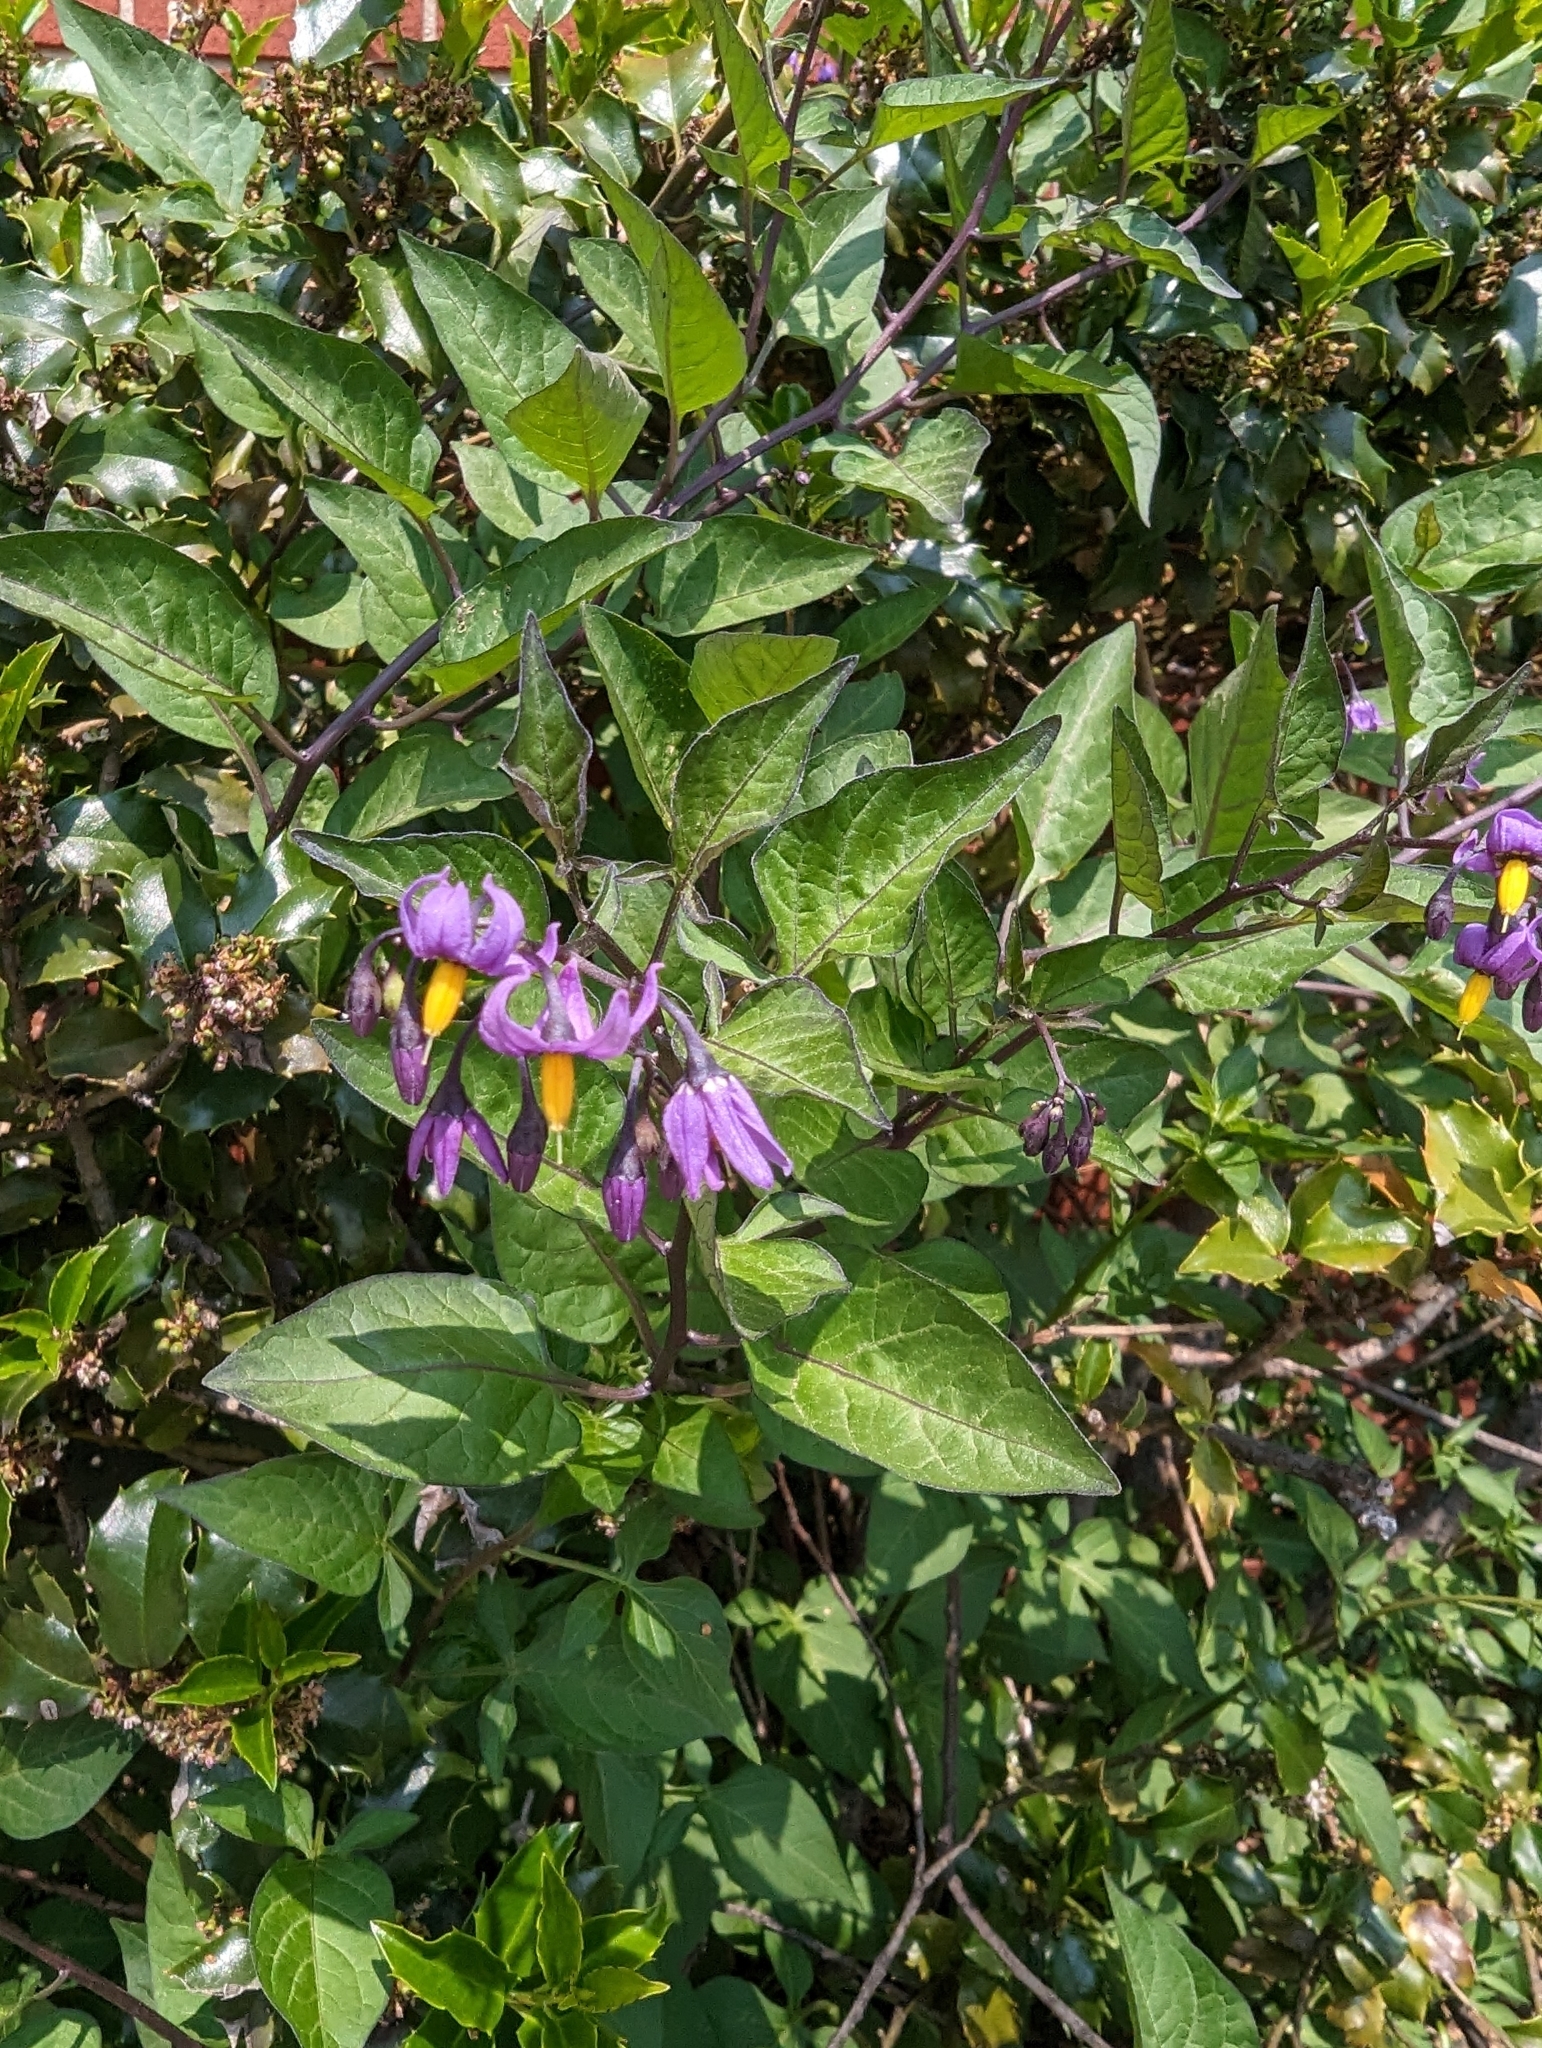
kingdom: Plantae
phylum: Tracheophyta
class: Magnoliopsida
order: Solanales
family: Solanaceae
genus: Solanum
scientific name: Solanum dulcamara
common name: Climbing nightshade
